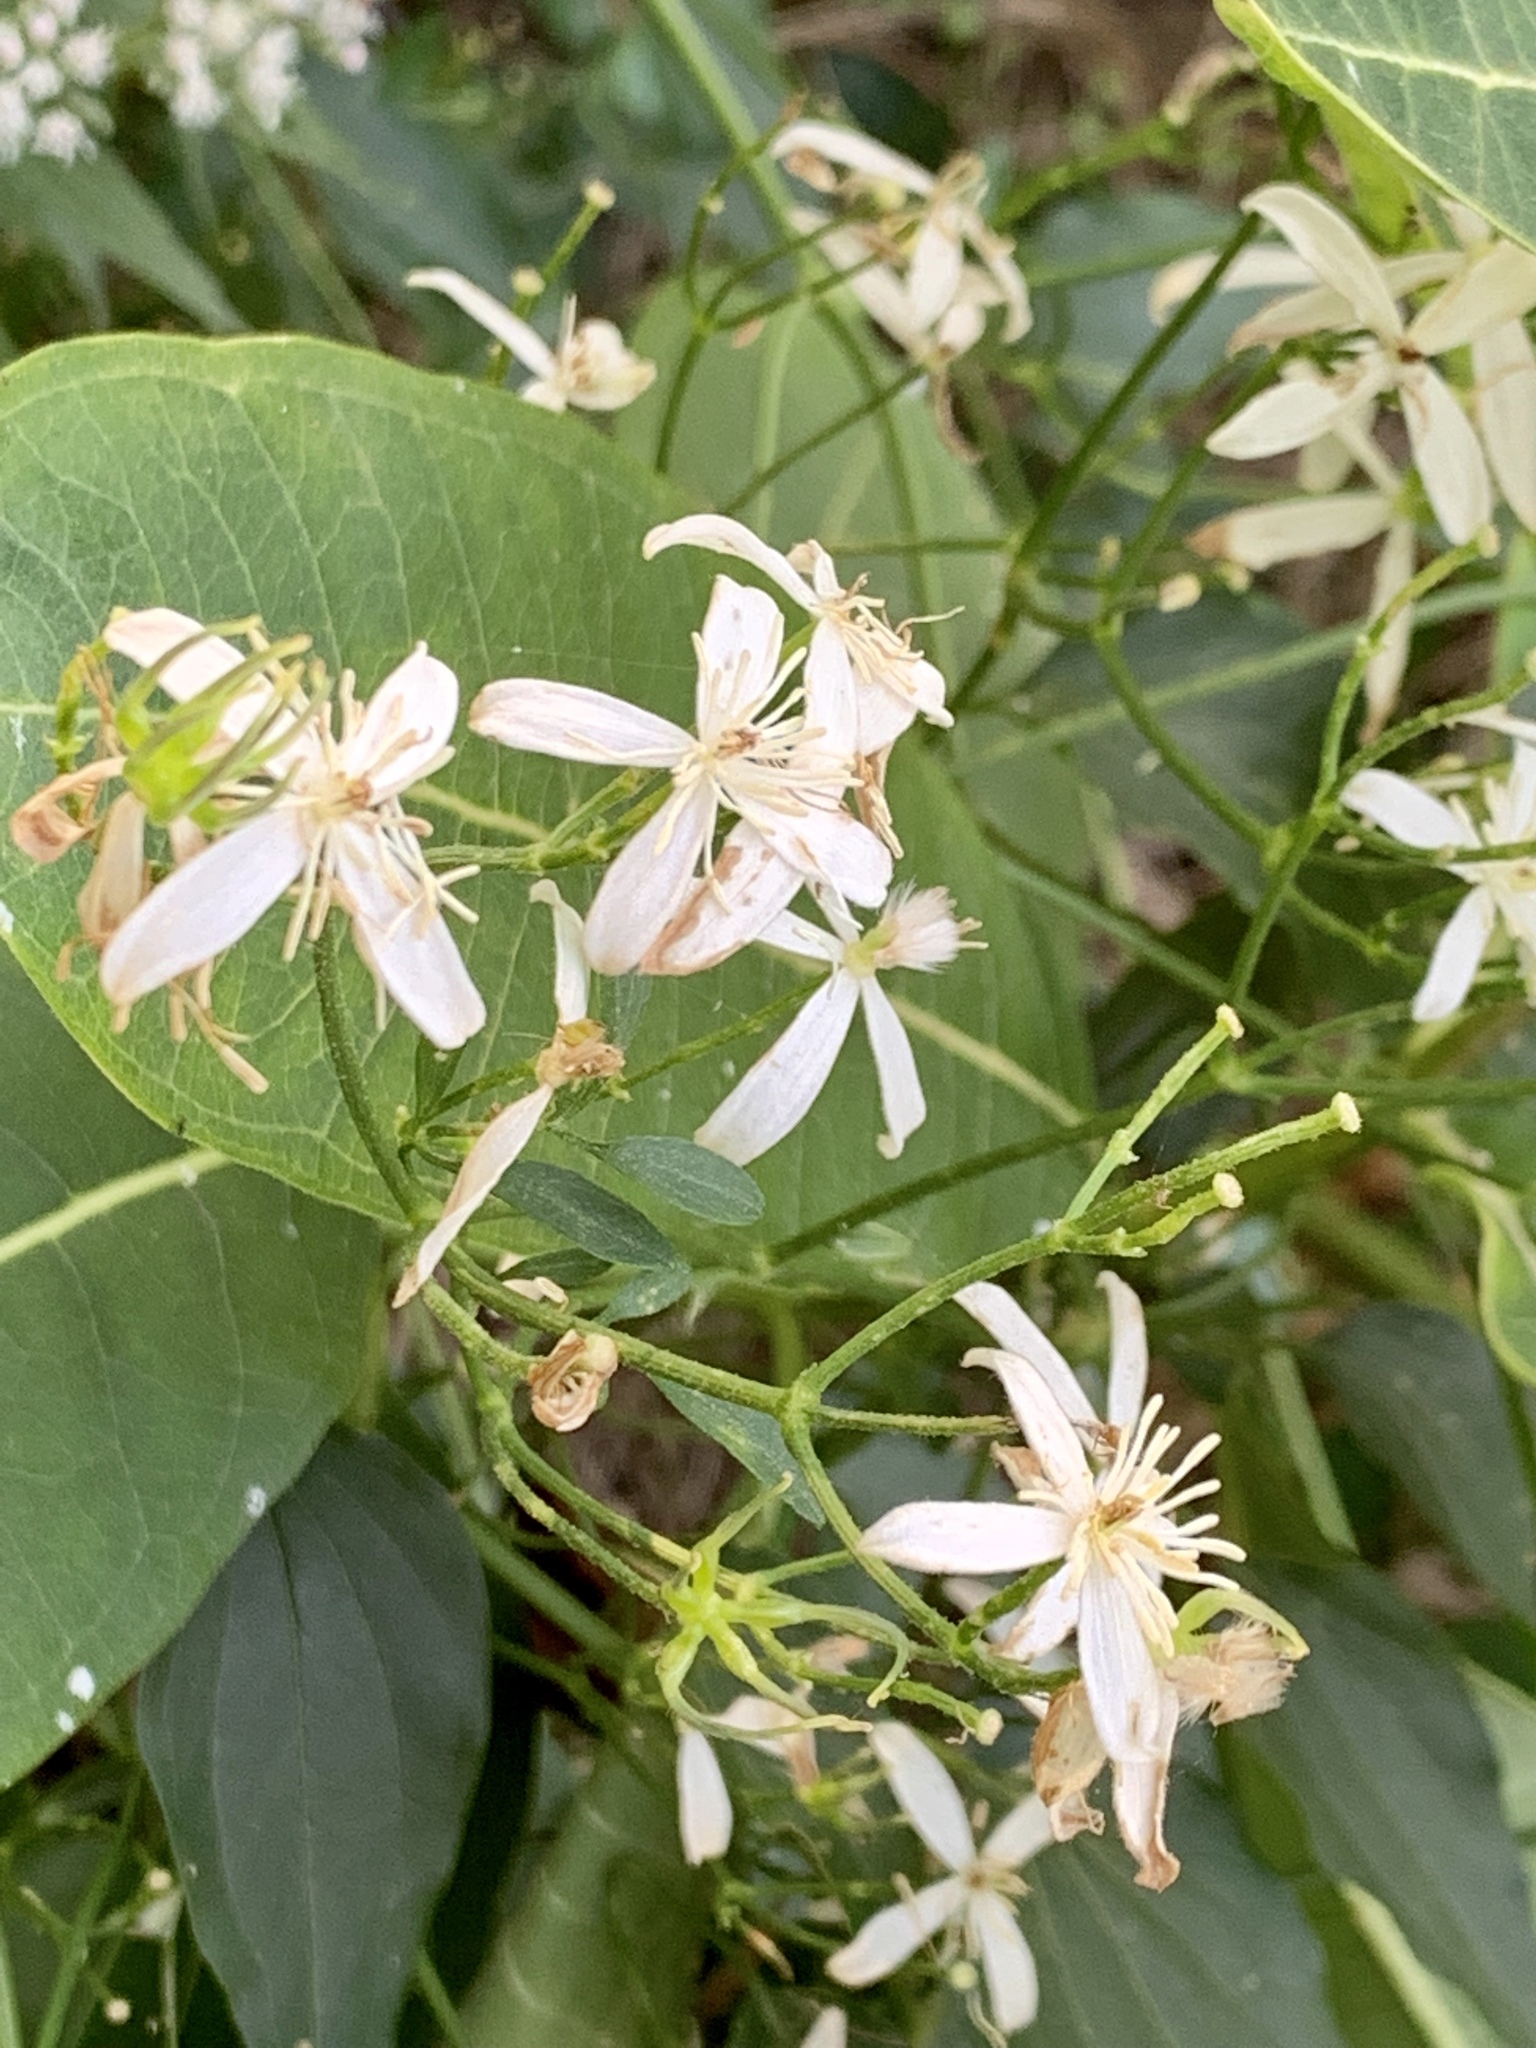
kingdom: Plantae
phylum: Tracheophyta
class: Magnoliopsida
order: Ranunculales
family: Ranunculaceae
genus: Clematis
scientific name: Clematis terniflora
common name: Sweet autumn clematis
